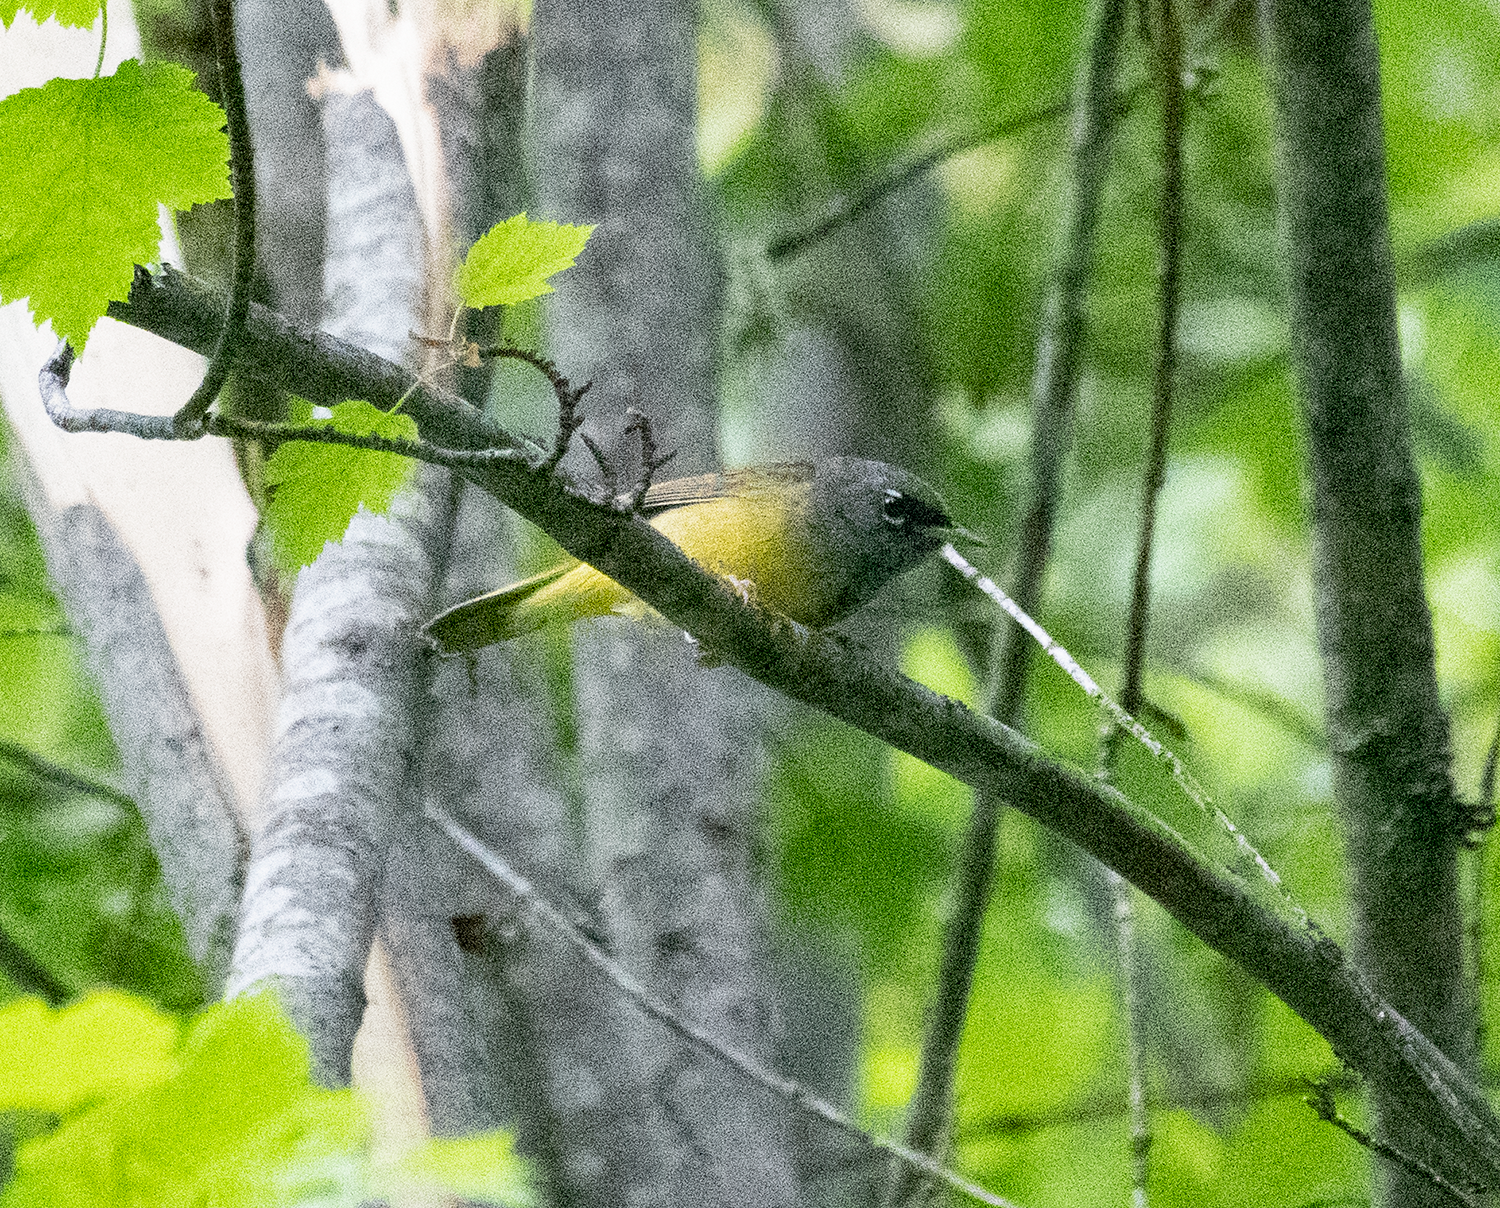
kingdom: Animalia
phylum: Chordata
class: Aves
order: Passeriformes
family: Parulidae
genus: Geothlypis
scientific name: Geothlypis tolmiei
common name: Macgillivray's warbler
